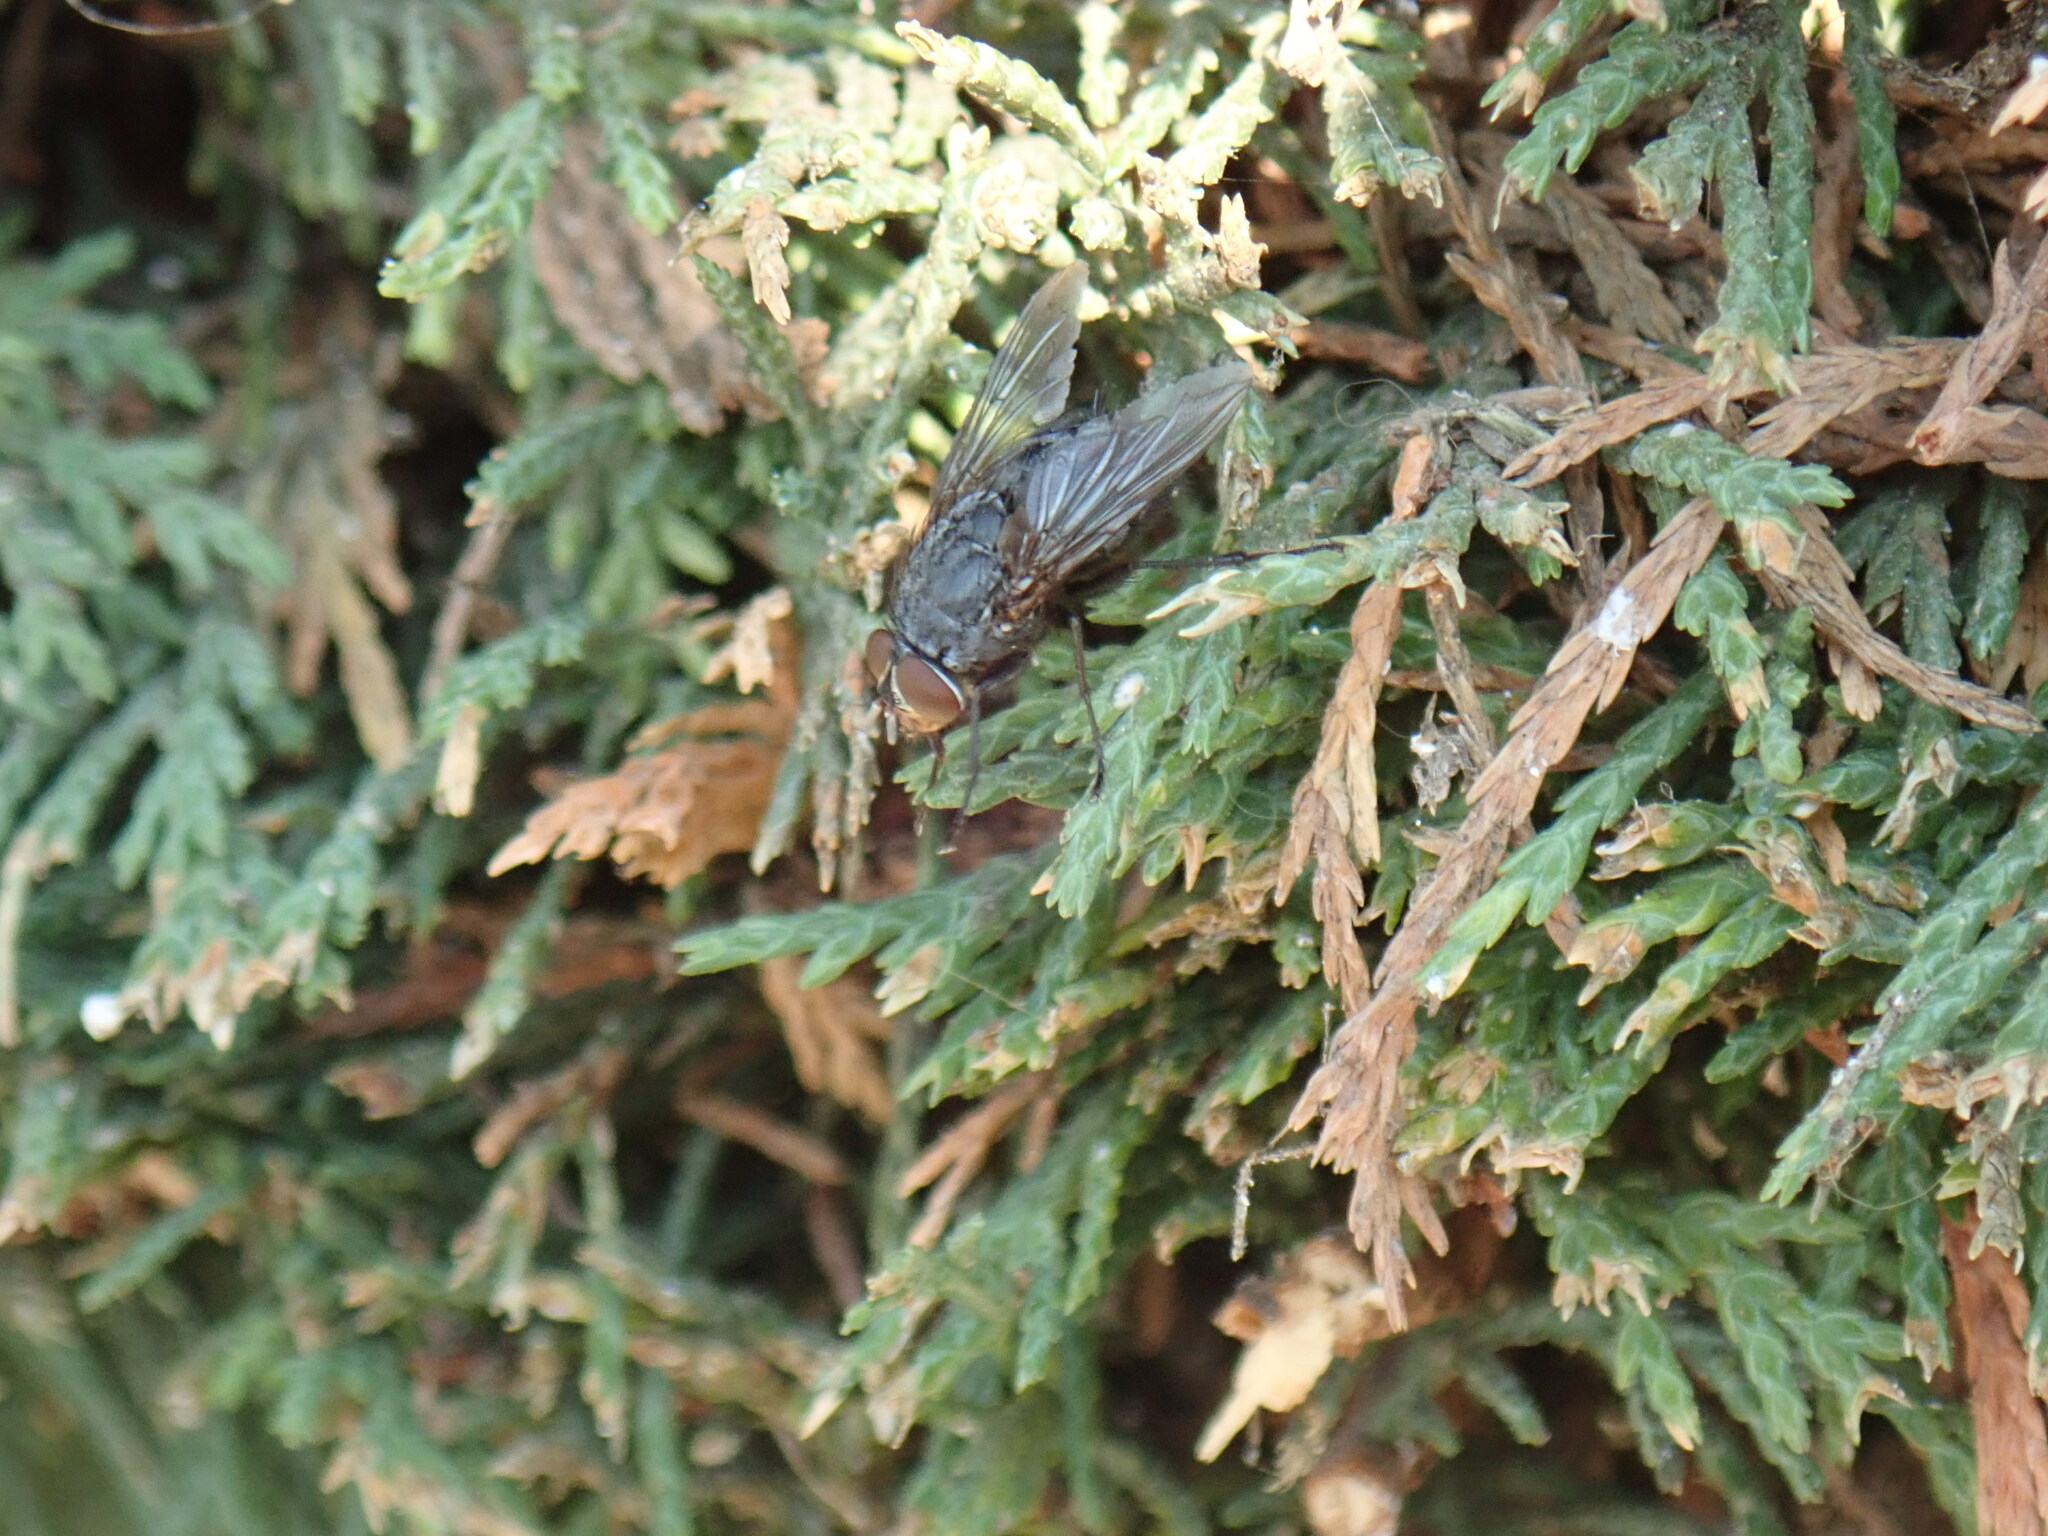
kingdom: Animalia
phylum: Arthropoda
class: Insecta
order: Diptera
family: Calliphoridae
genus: Calliphora
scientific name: Calliphora vicina
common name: Common blow flie
